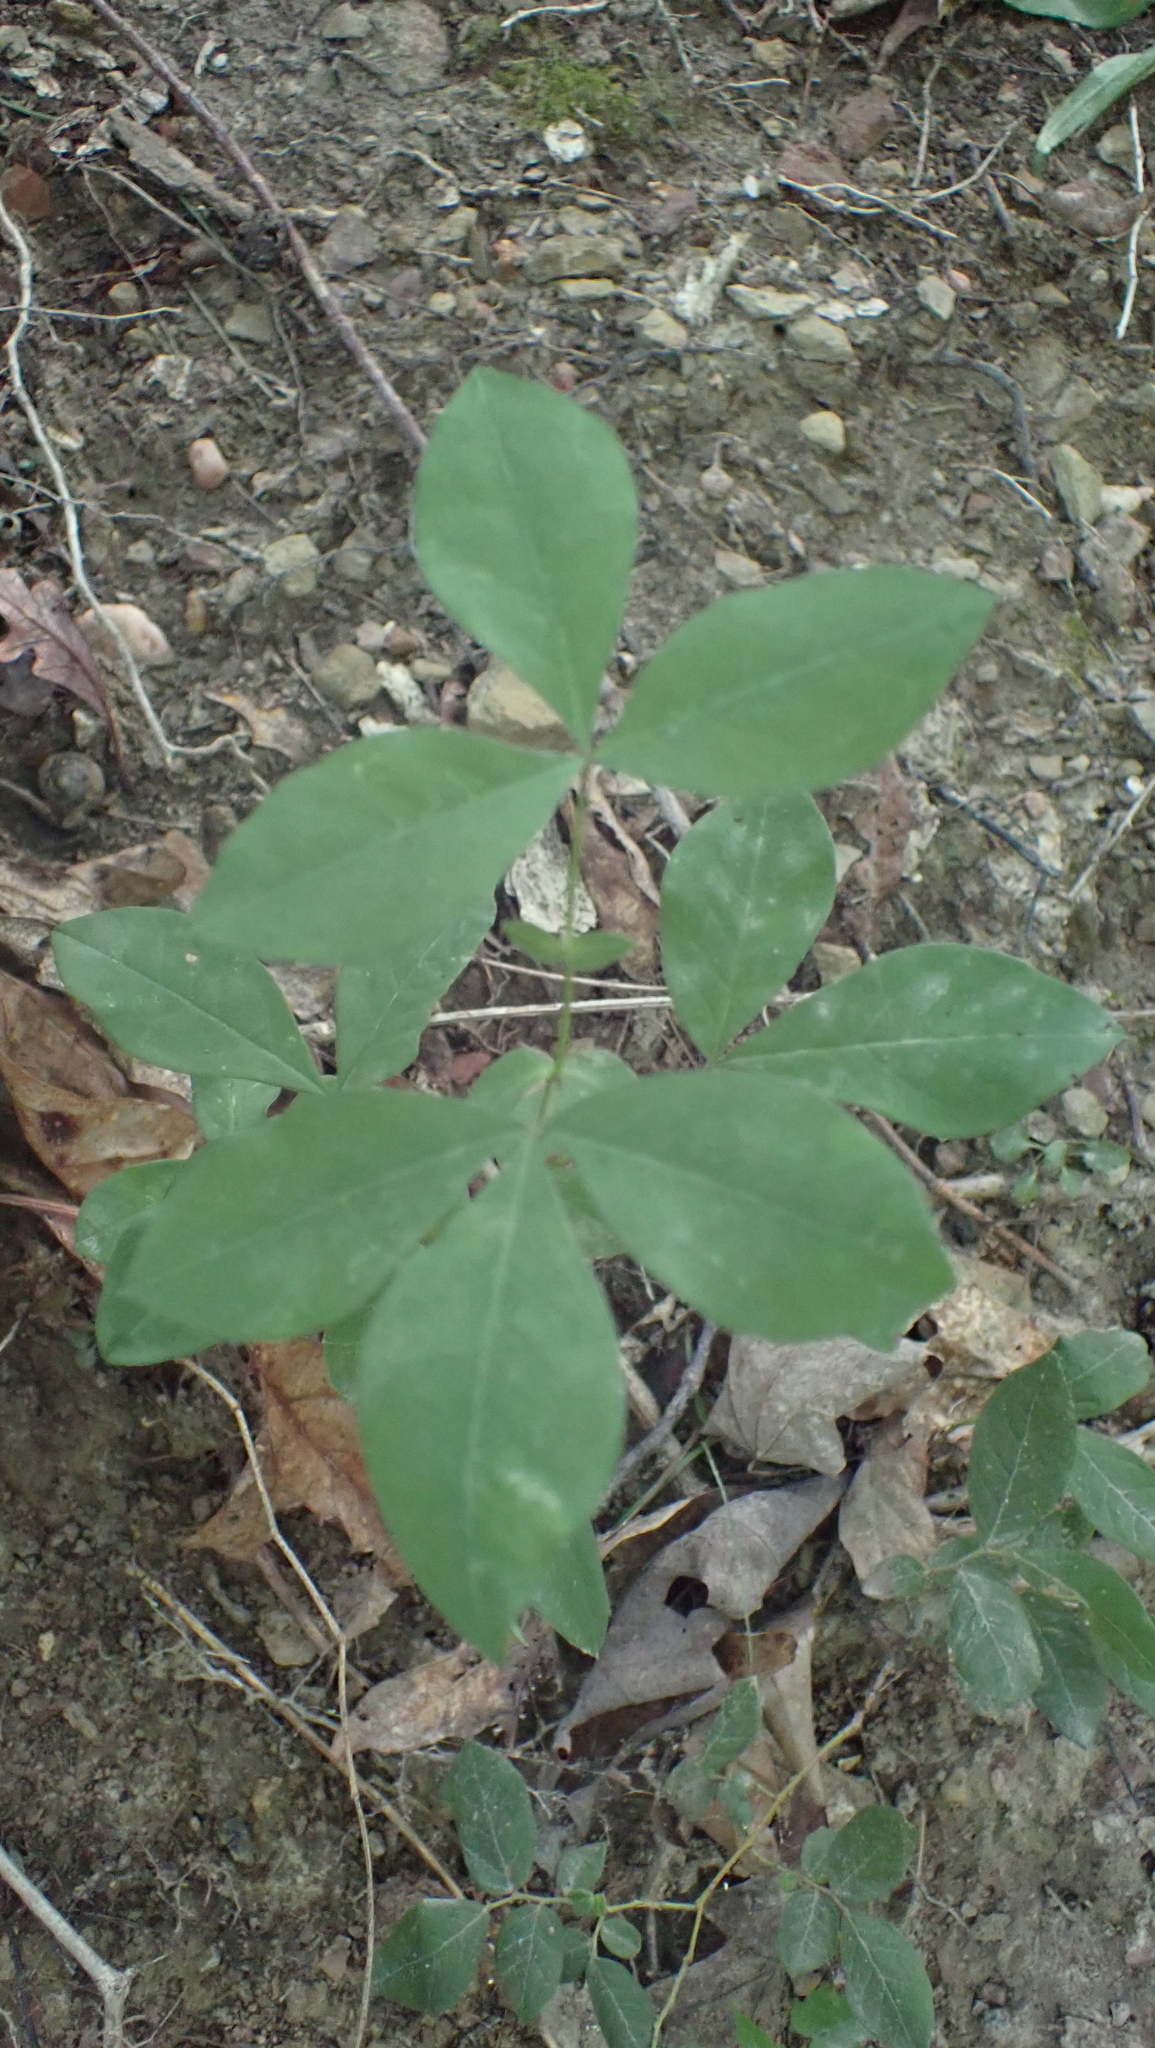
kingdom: Plantae
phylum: Tracheophyta
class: Magnoliopsida
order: Fabales
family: Fabaceae
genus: Thermopsis
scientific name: Thermopsis villosa
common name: Carolina-lupin
